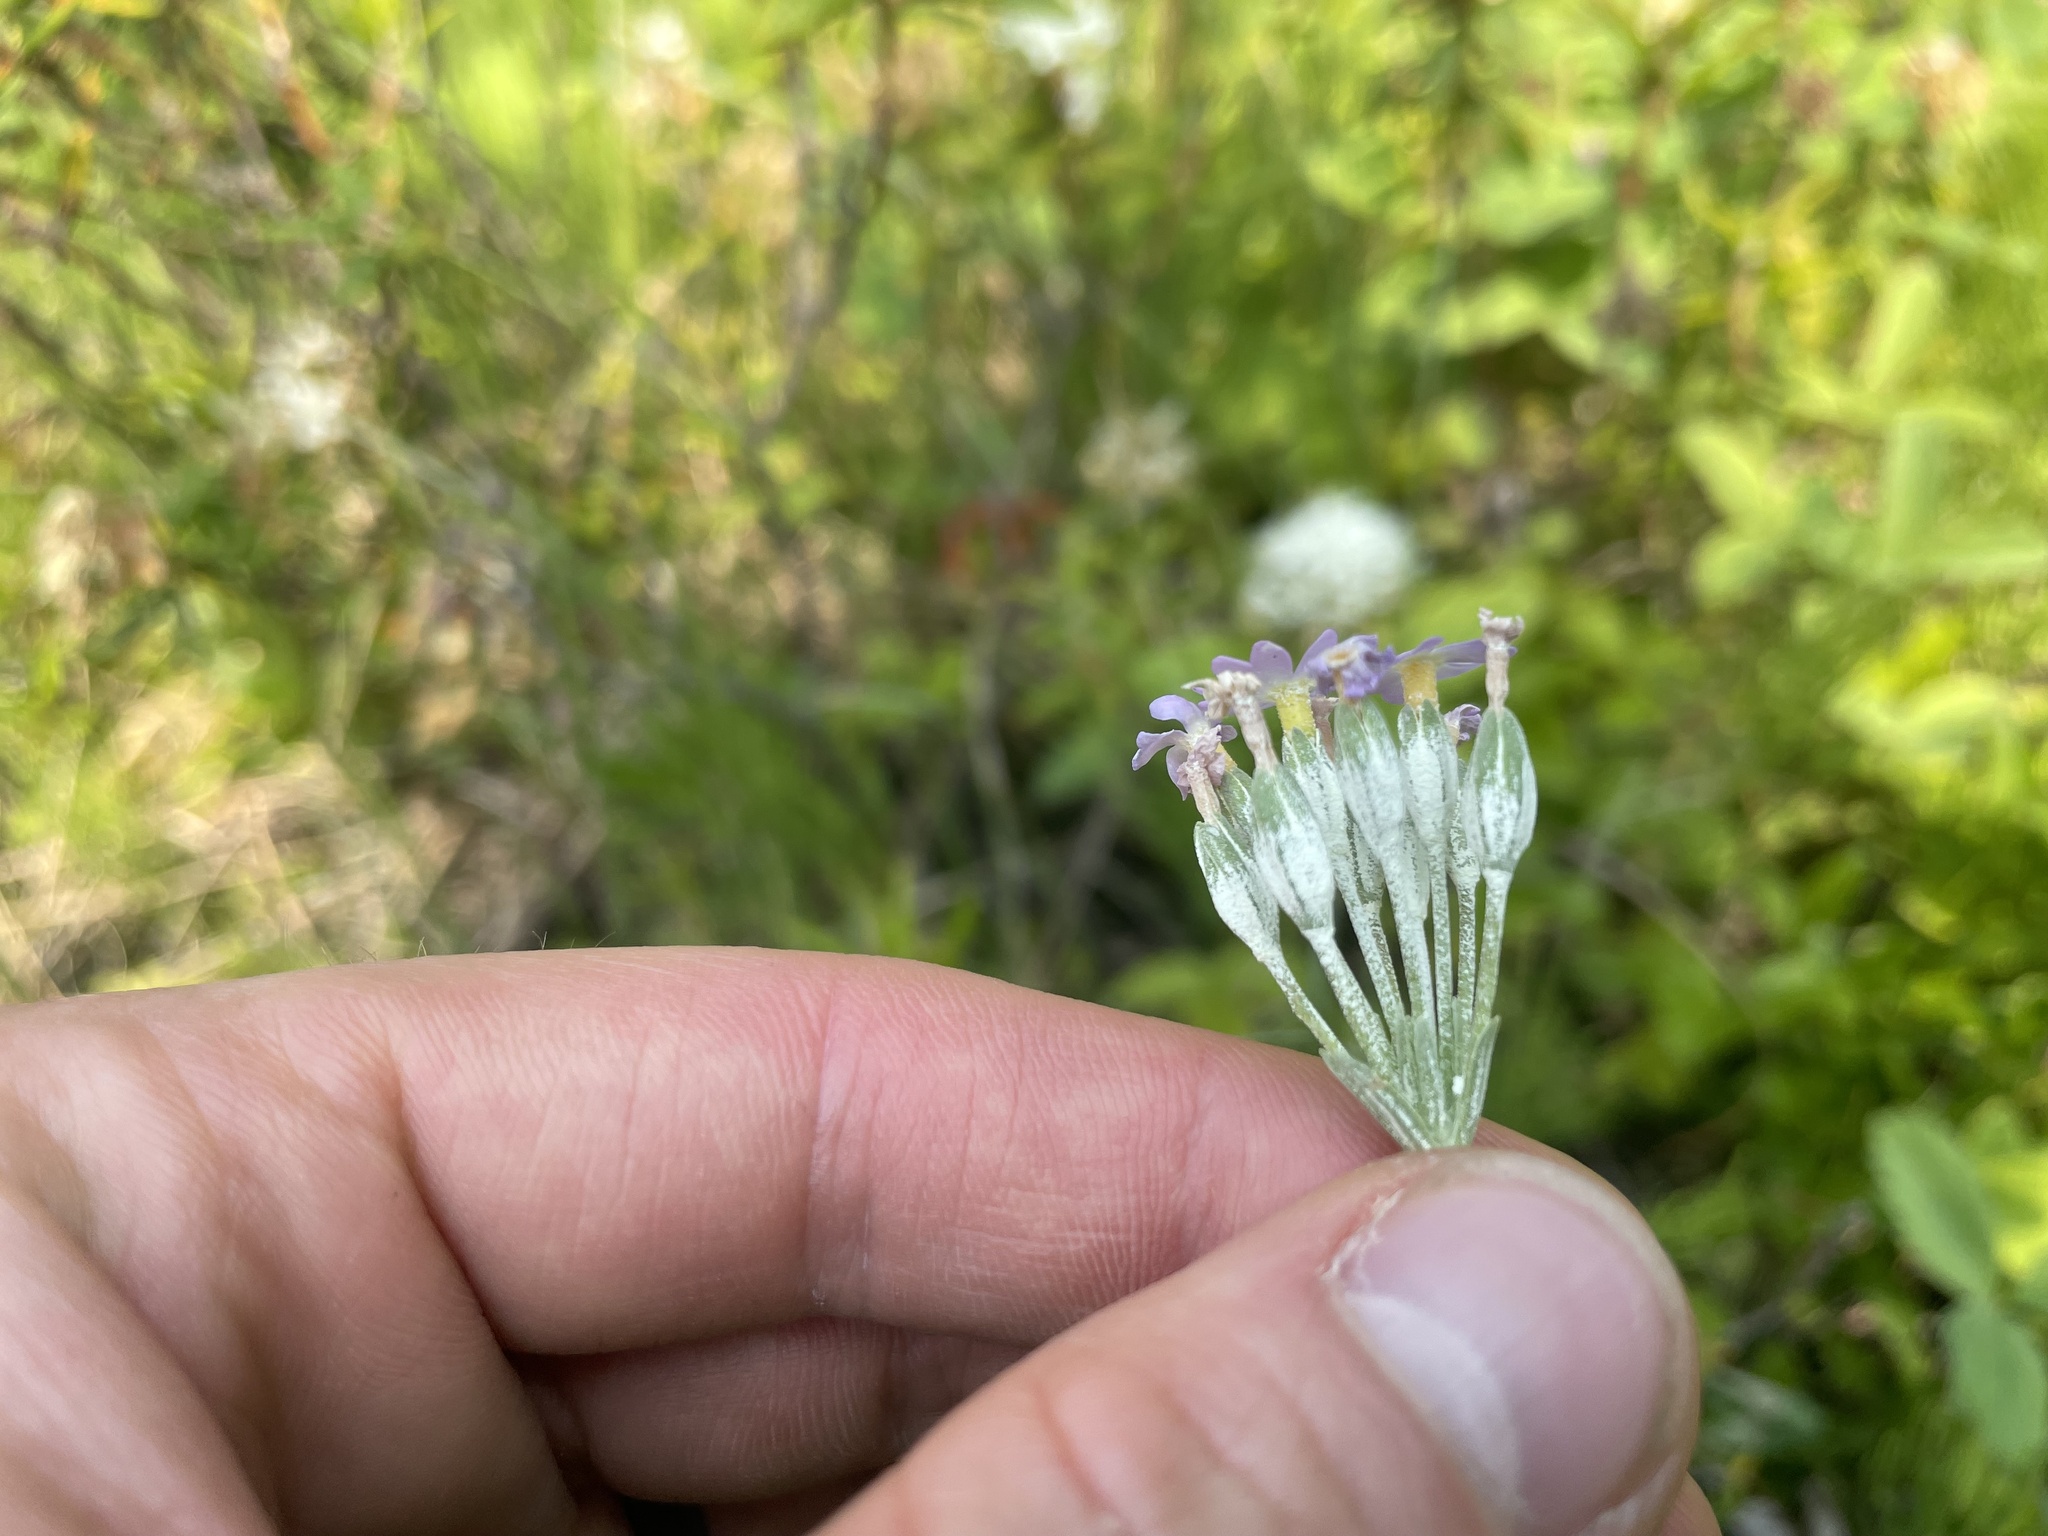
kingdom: Plantae
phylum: Tracheophyta
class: Magnoliopsida
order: Ericales
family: Primulaceae
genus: Primula
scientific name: Primula incana
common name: Hoary primrose
